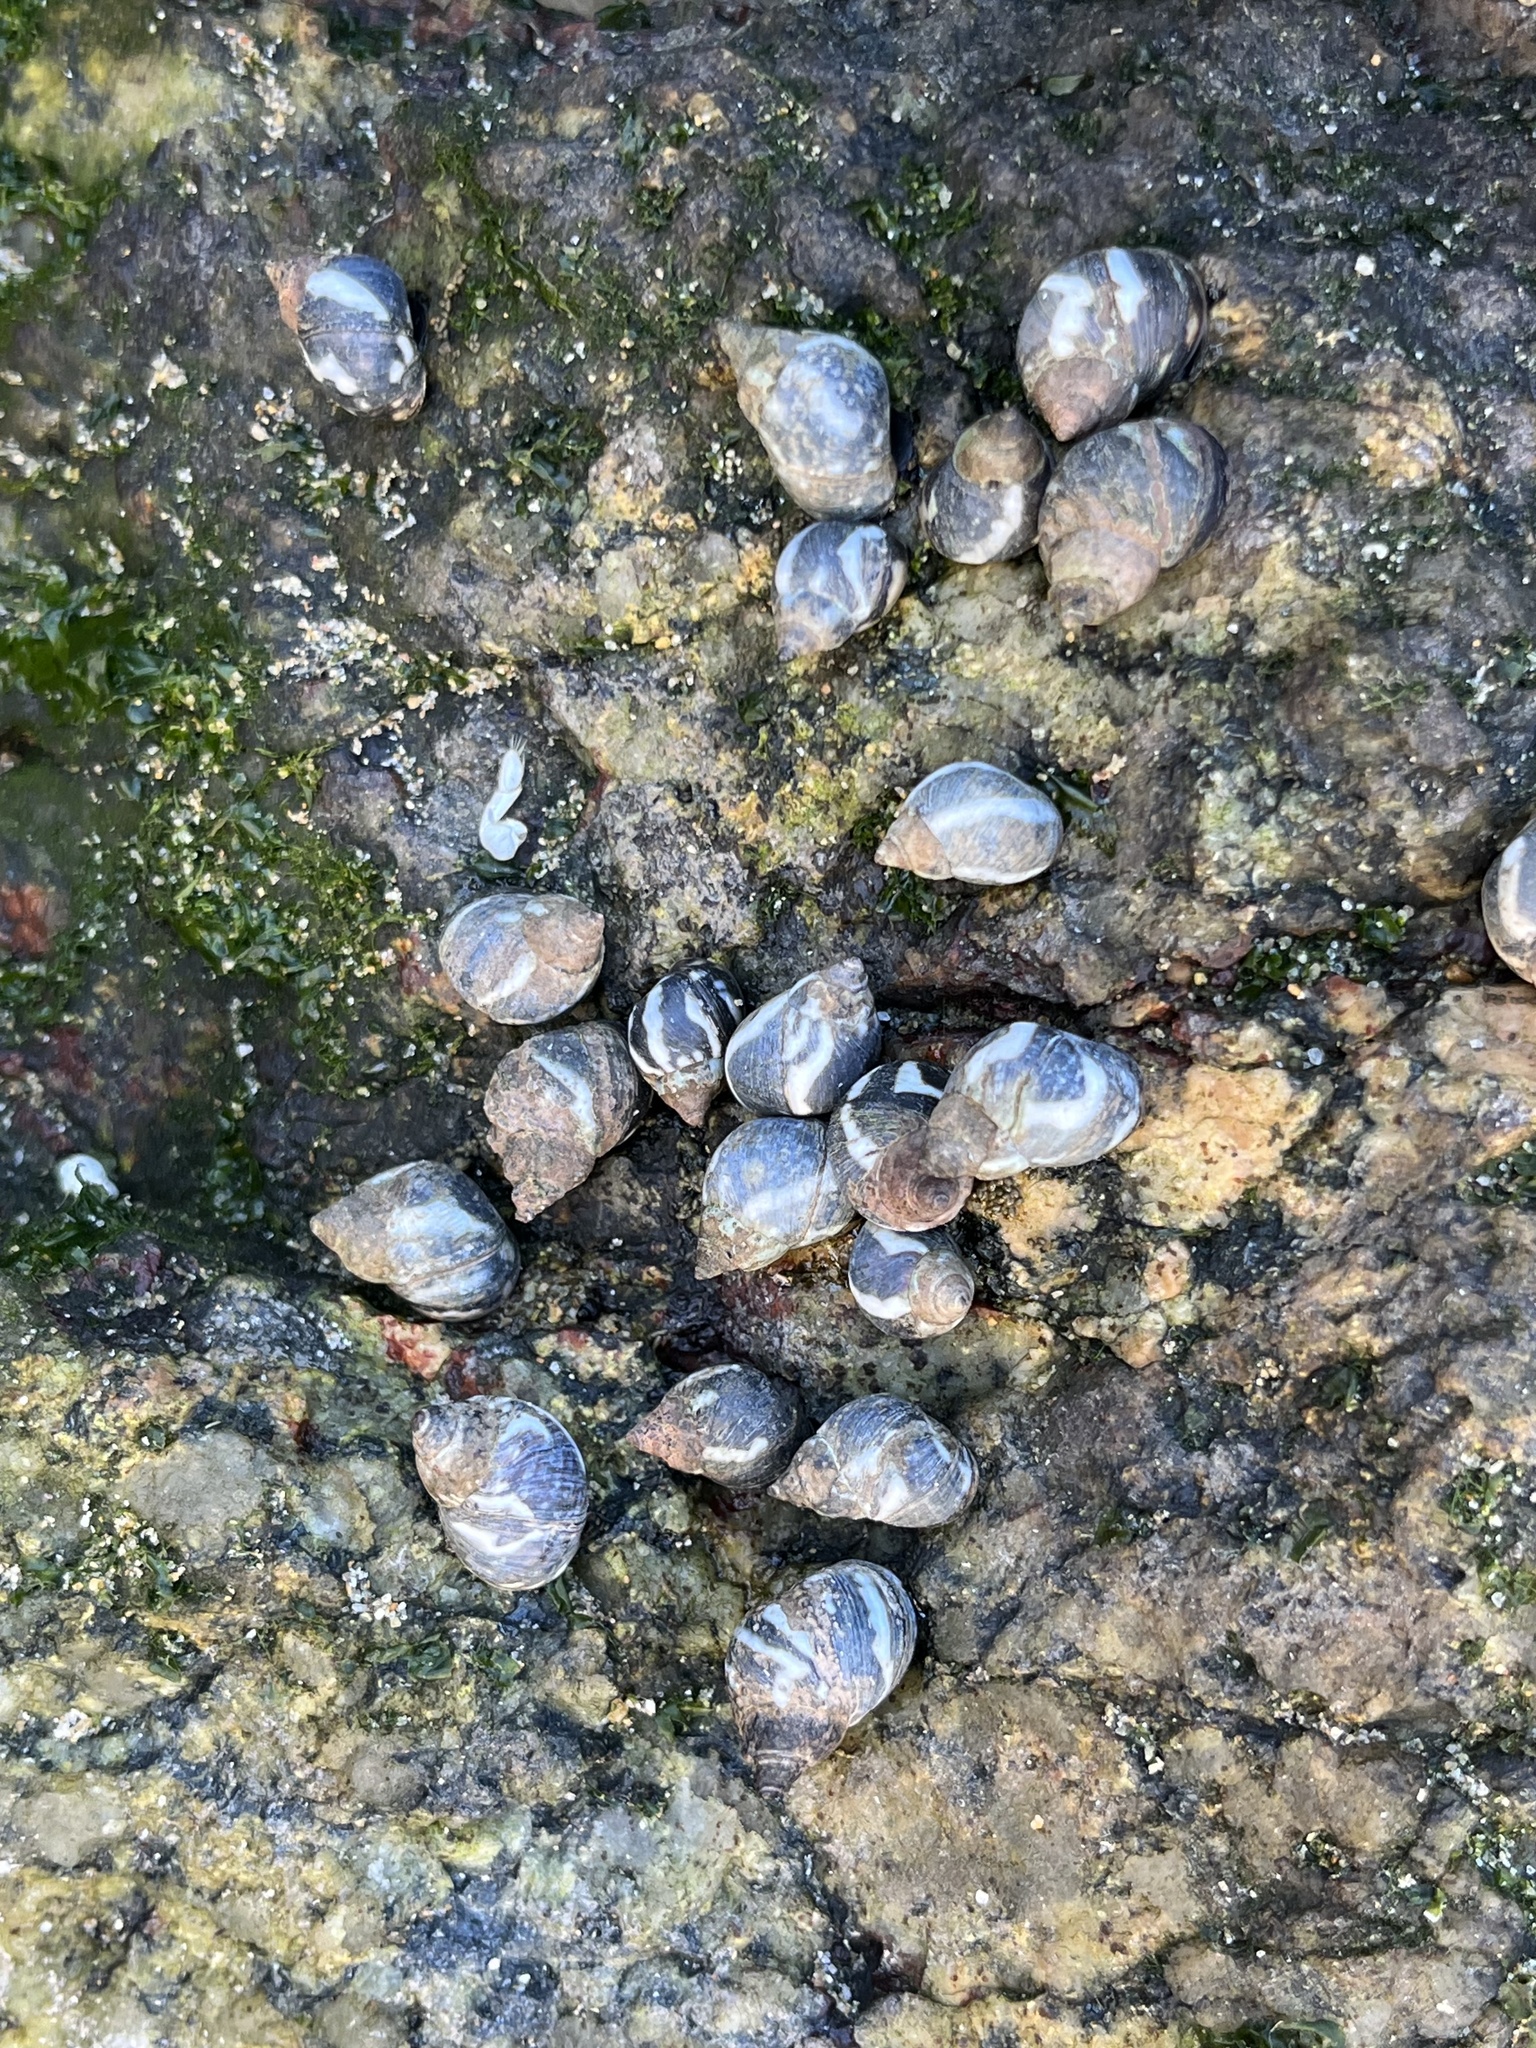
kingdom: Animalia
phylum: Mollusca
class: Gastropoda
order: Littorinimorpha
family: Littorinidae
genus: Echinolittorina
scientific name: Echinolittorina peruviana
